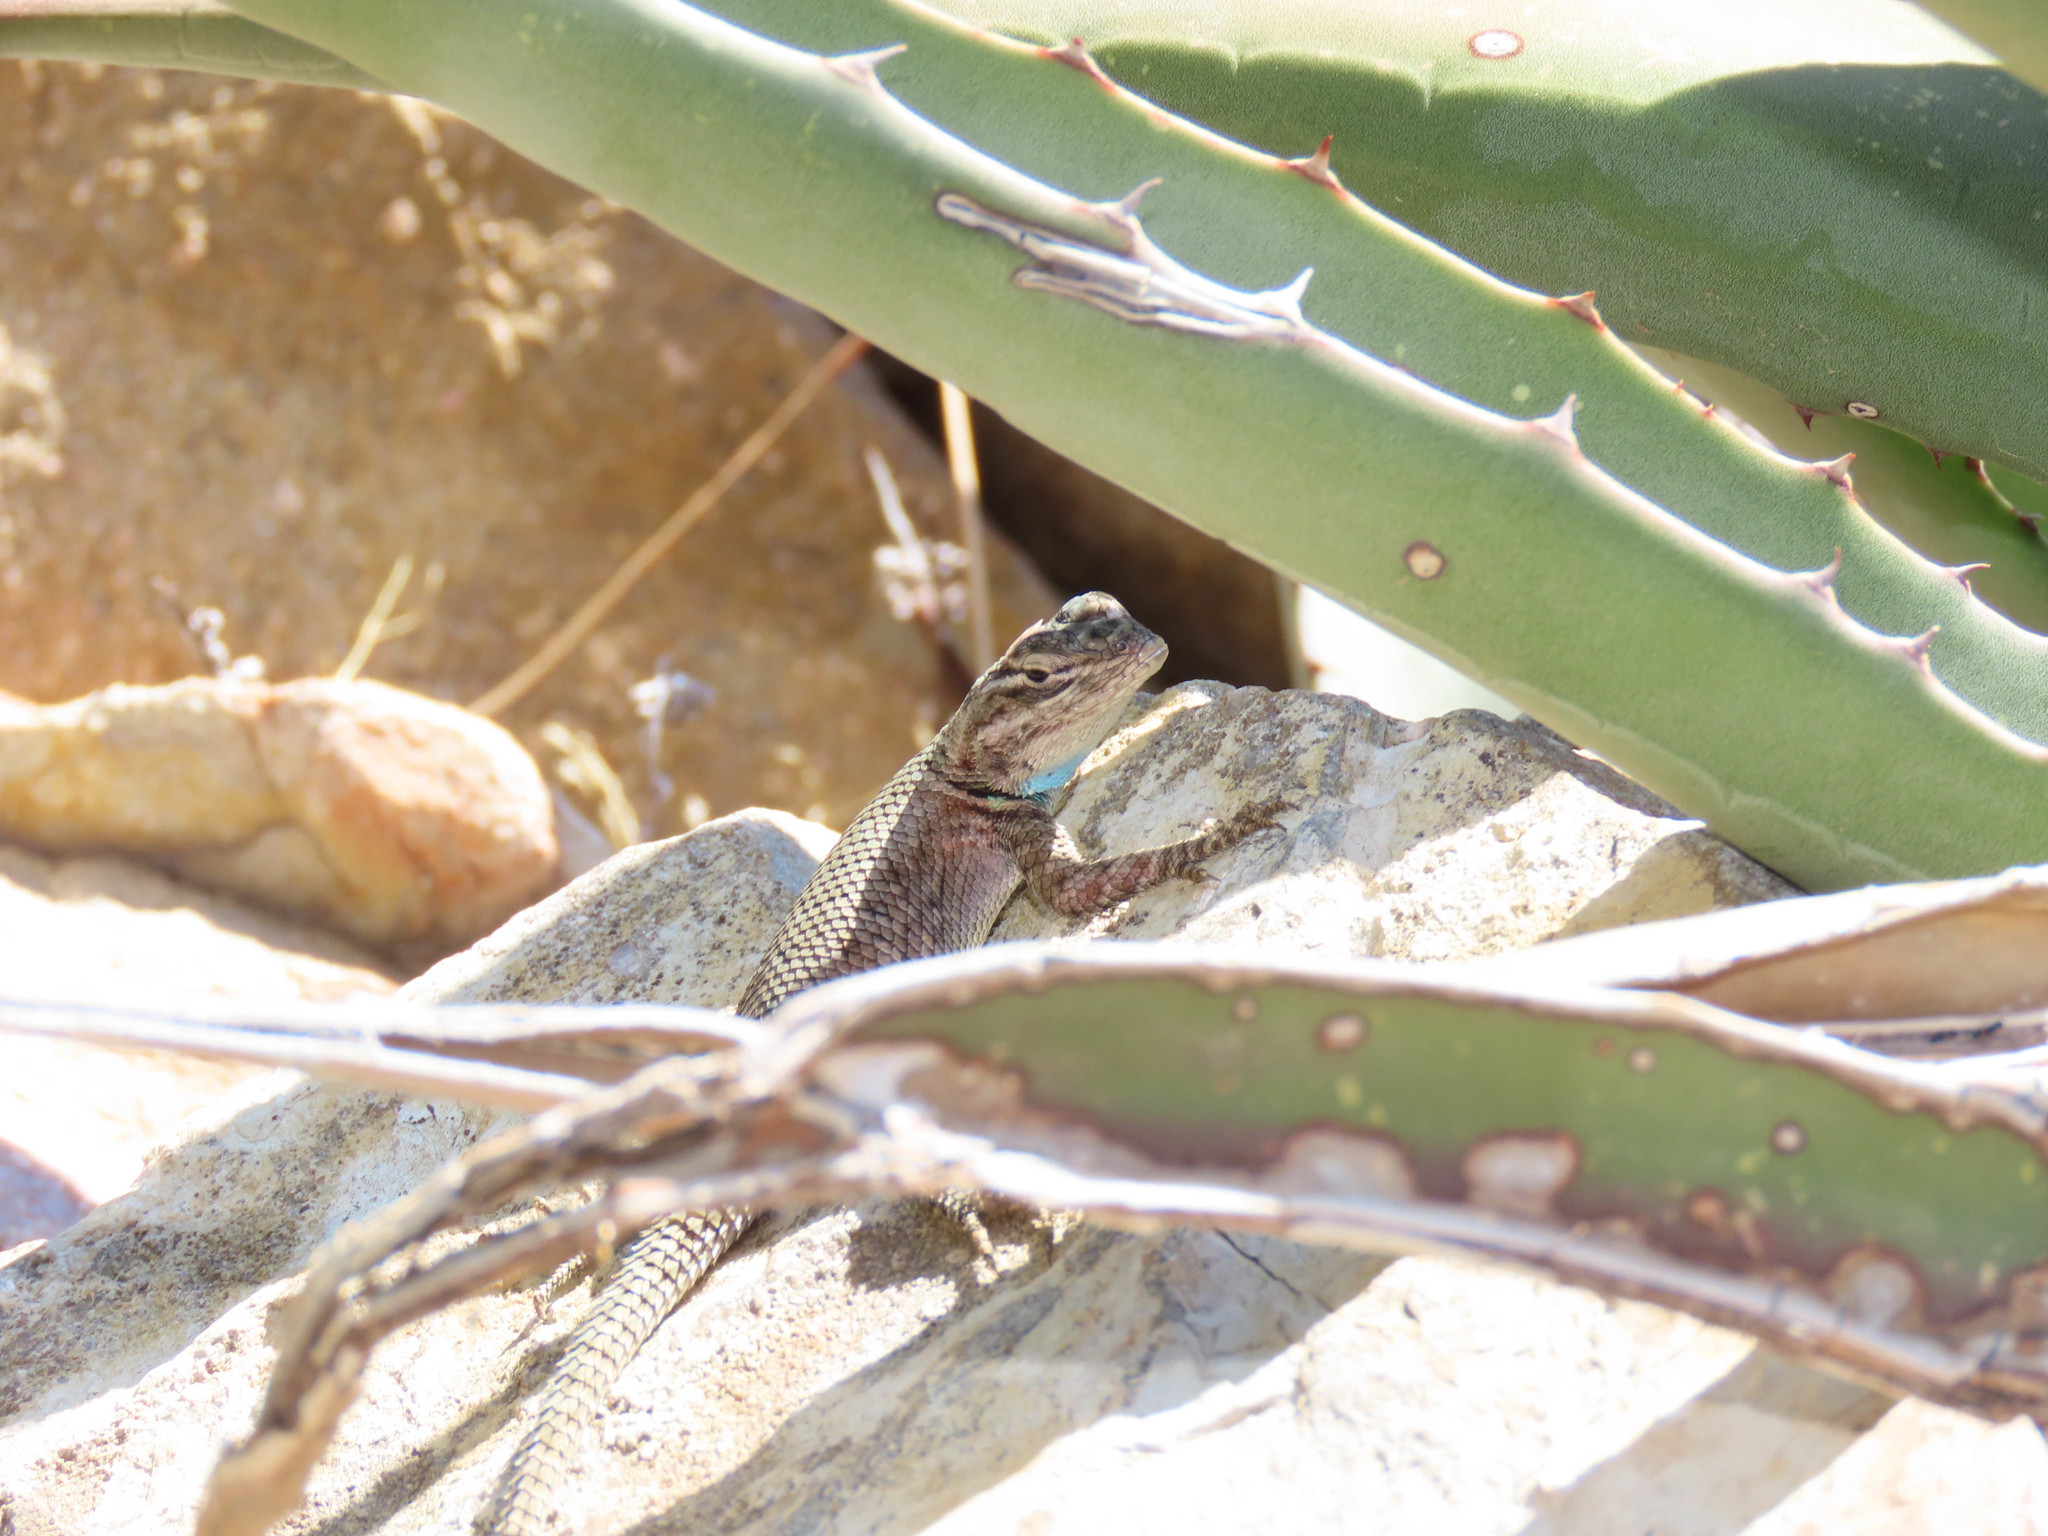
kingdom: Animalia
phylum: Chordata
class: Squamata
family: Phrynosomatidae
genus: Sceloporus
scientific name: Sceloporus jarrovii
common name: Yarrow's spiny lizard
